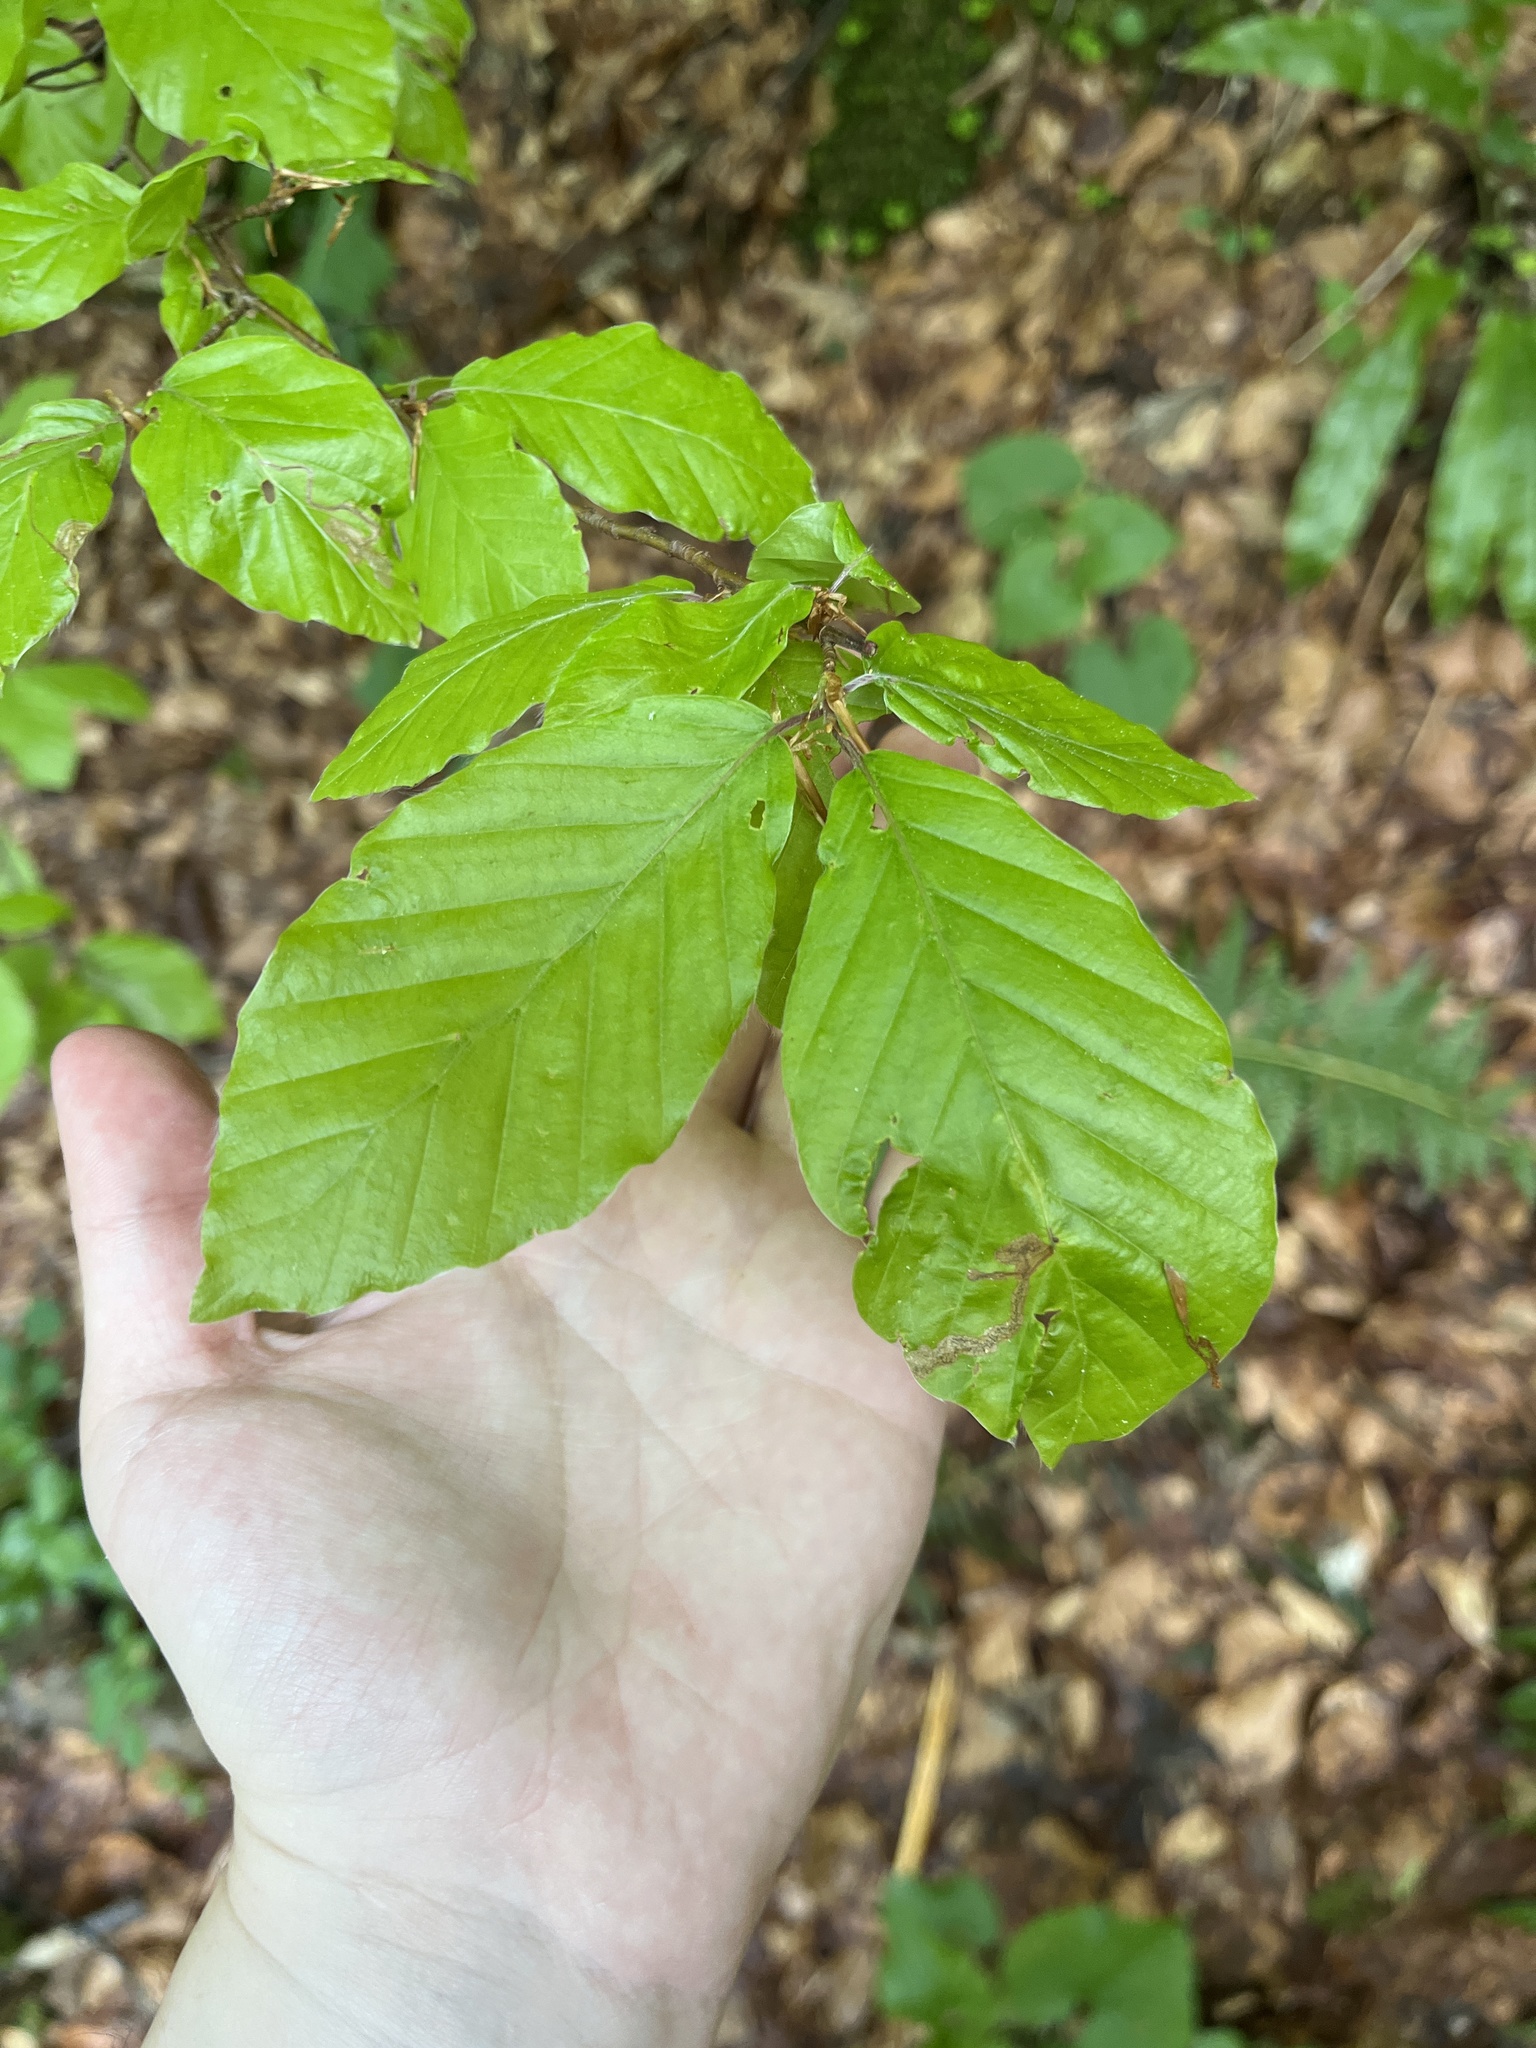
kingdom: Plantae
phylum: Tracheophyta
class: Magnoliopsida
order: Fagales
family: Fagaceae
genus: Fagus
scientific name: Fagus sylvatica
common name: Beech
